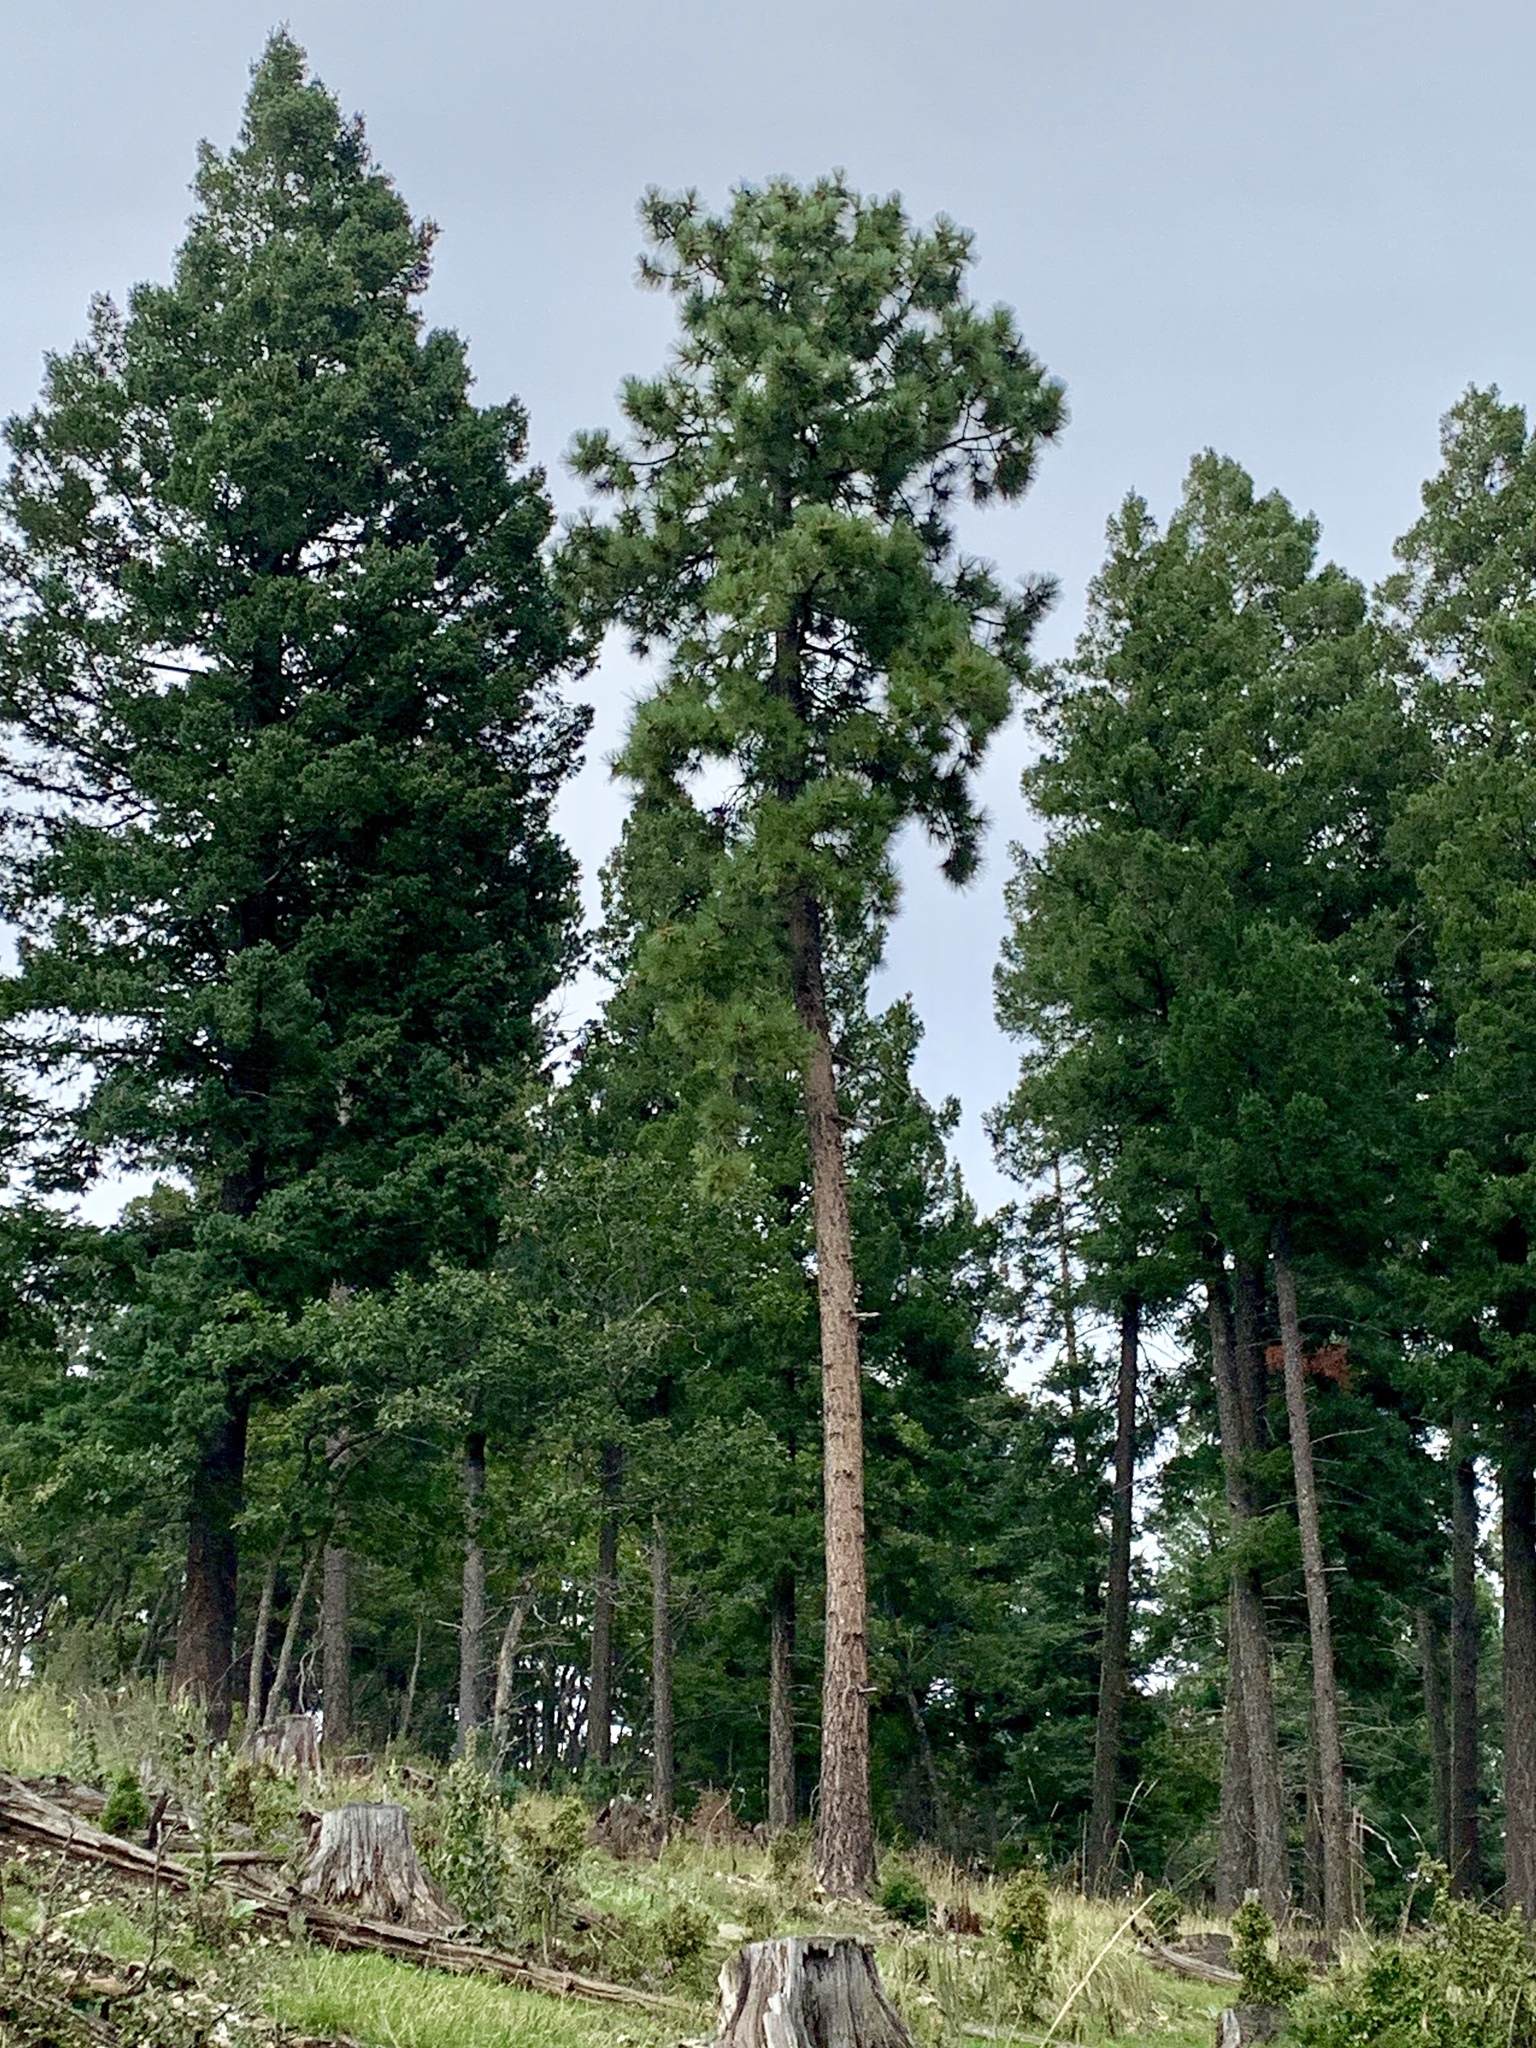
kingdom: Plantae
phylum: Tracheophyta
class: Pinopsida
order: Pinales
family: Pinaceae
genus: Pinus
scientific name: Pinus ponderosa
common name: Western yellow-pine
